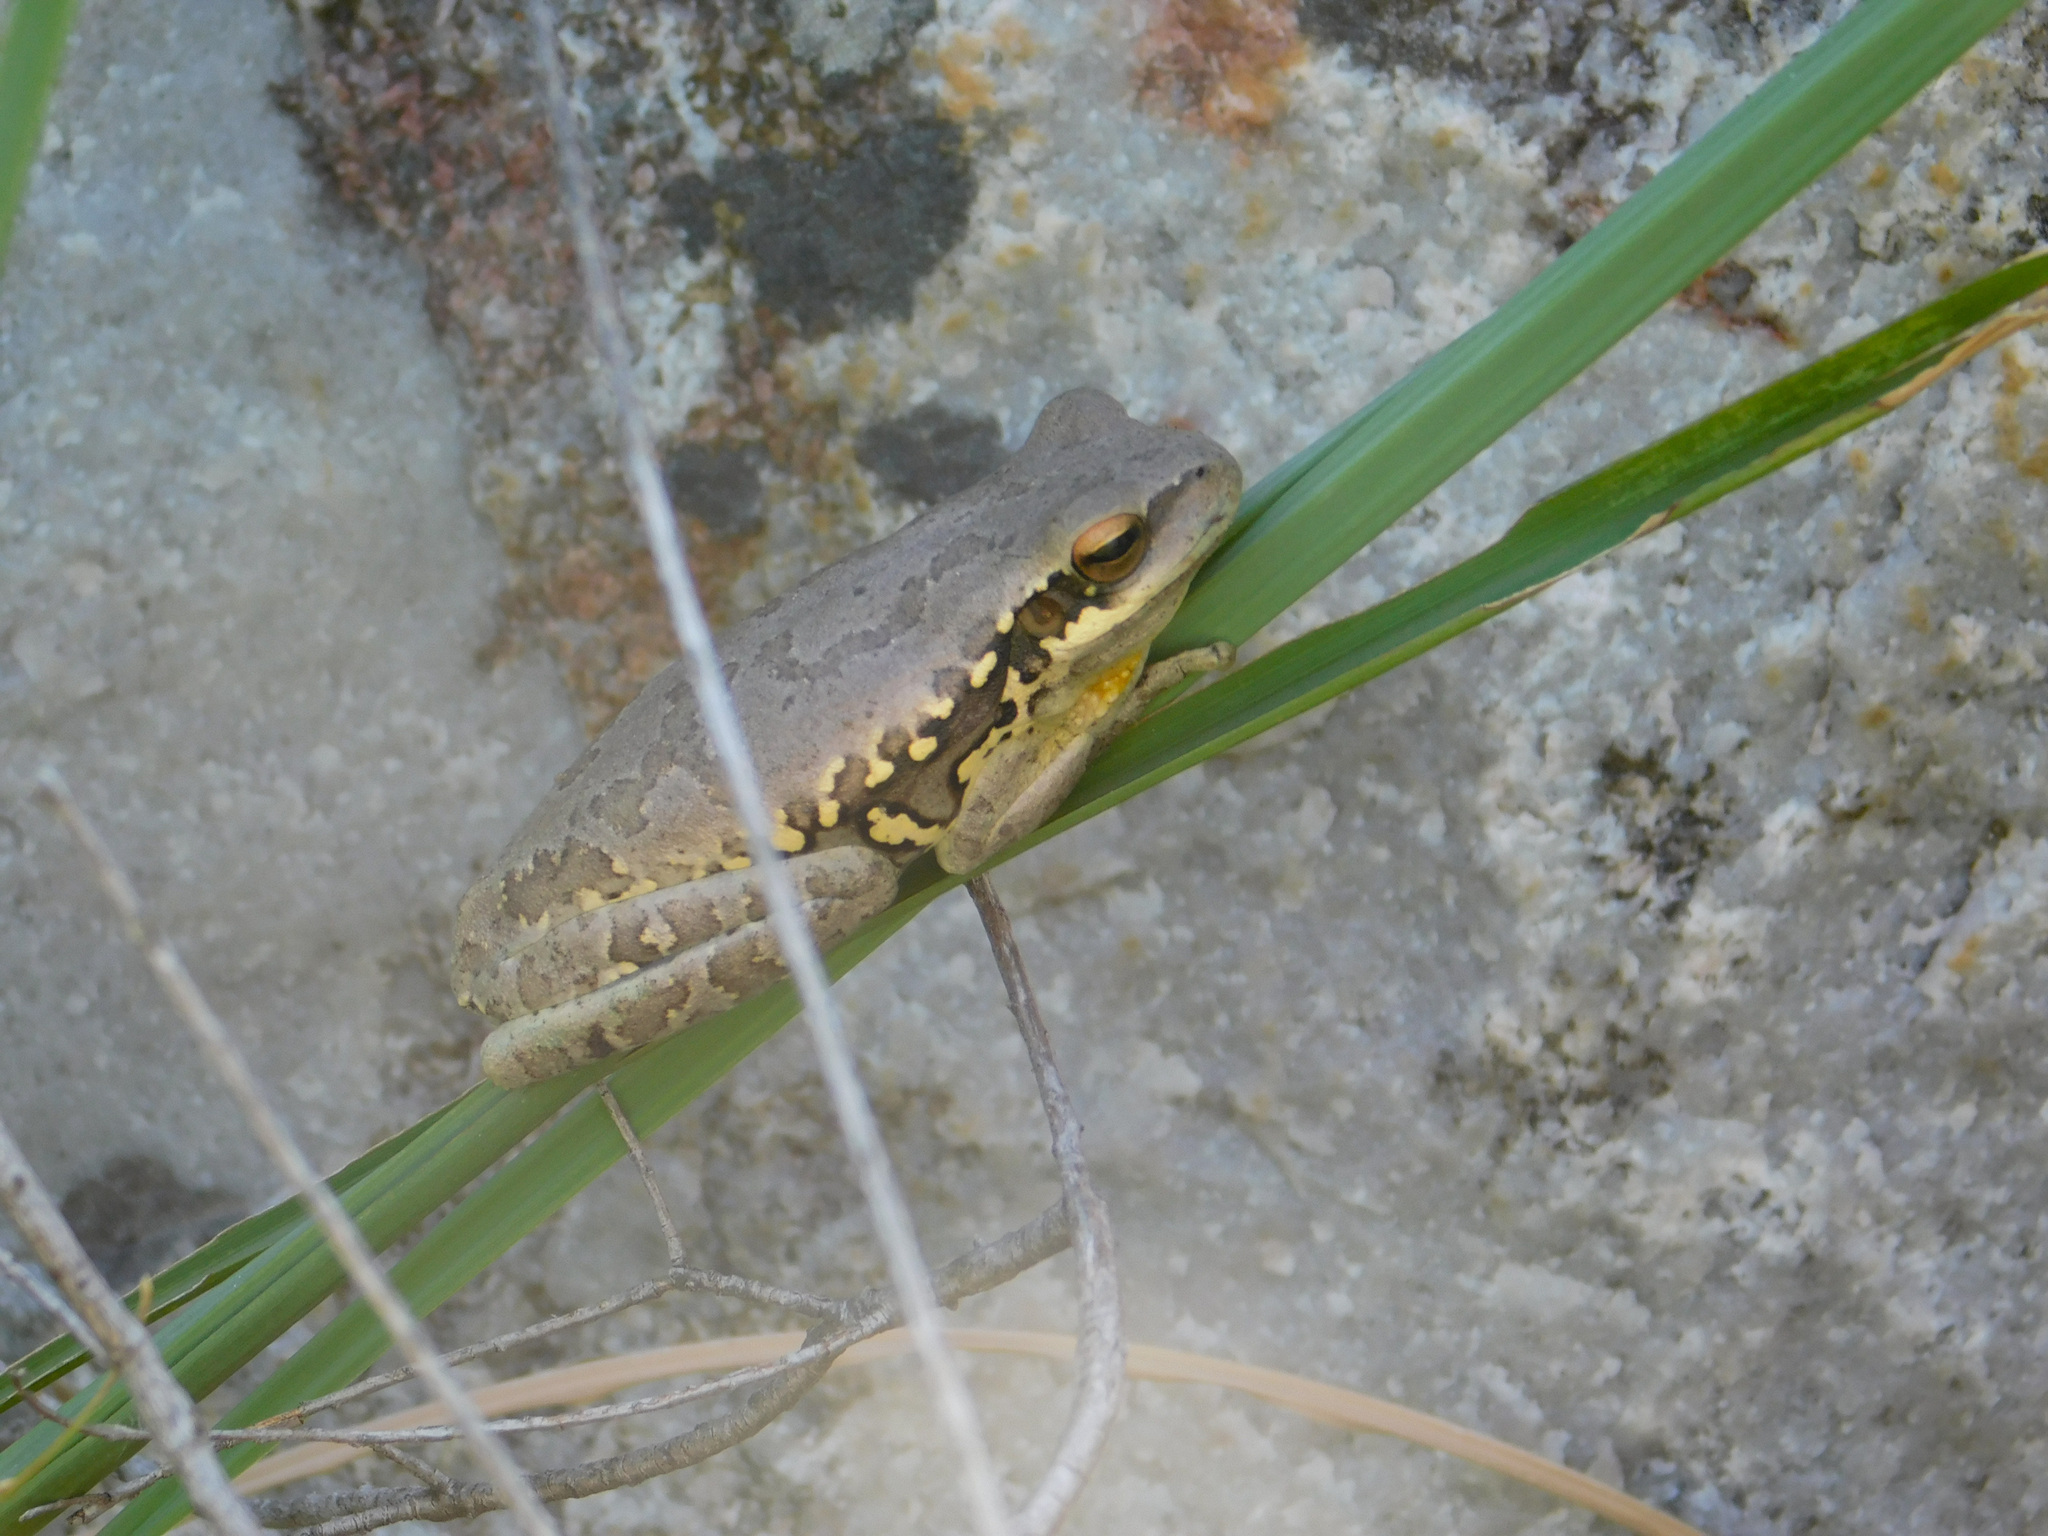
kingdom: Animalia
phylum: Chordata
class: Amphibia
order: Anura
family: Hylidae
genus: Boana
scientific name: Boana pulchella
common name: Montevideo treefrog
